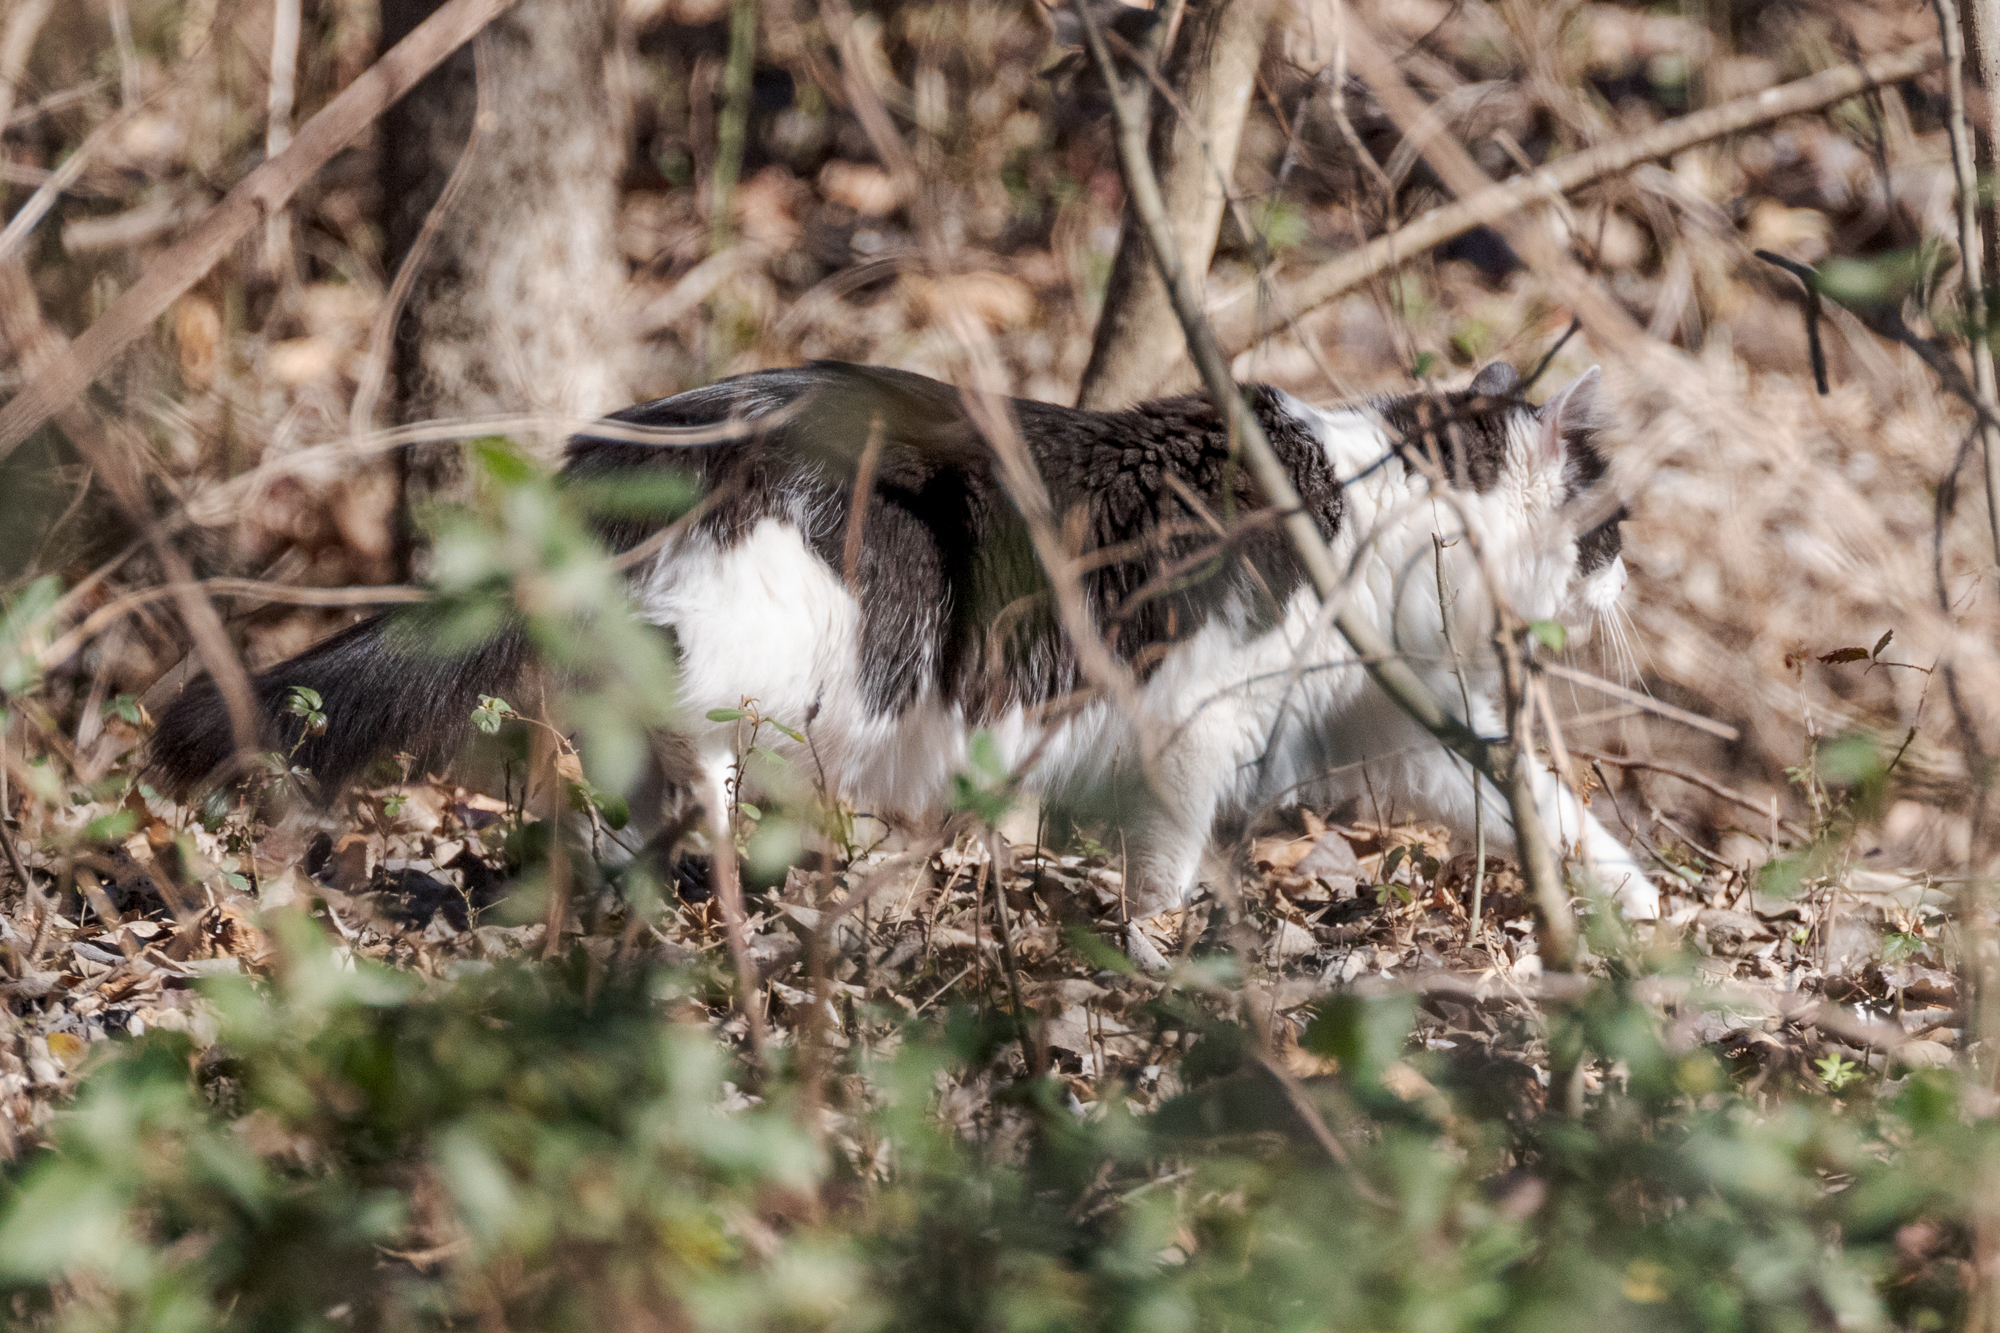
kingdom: Animalia
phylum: Chordata
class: Mammalia
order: Carnivora
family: Felidae
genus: Felis
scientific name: Felis catus
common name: Domestic cat
